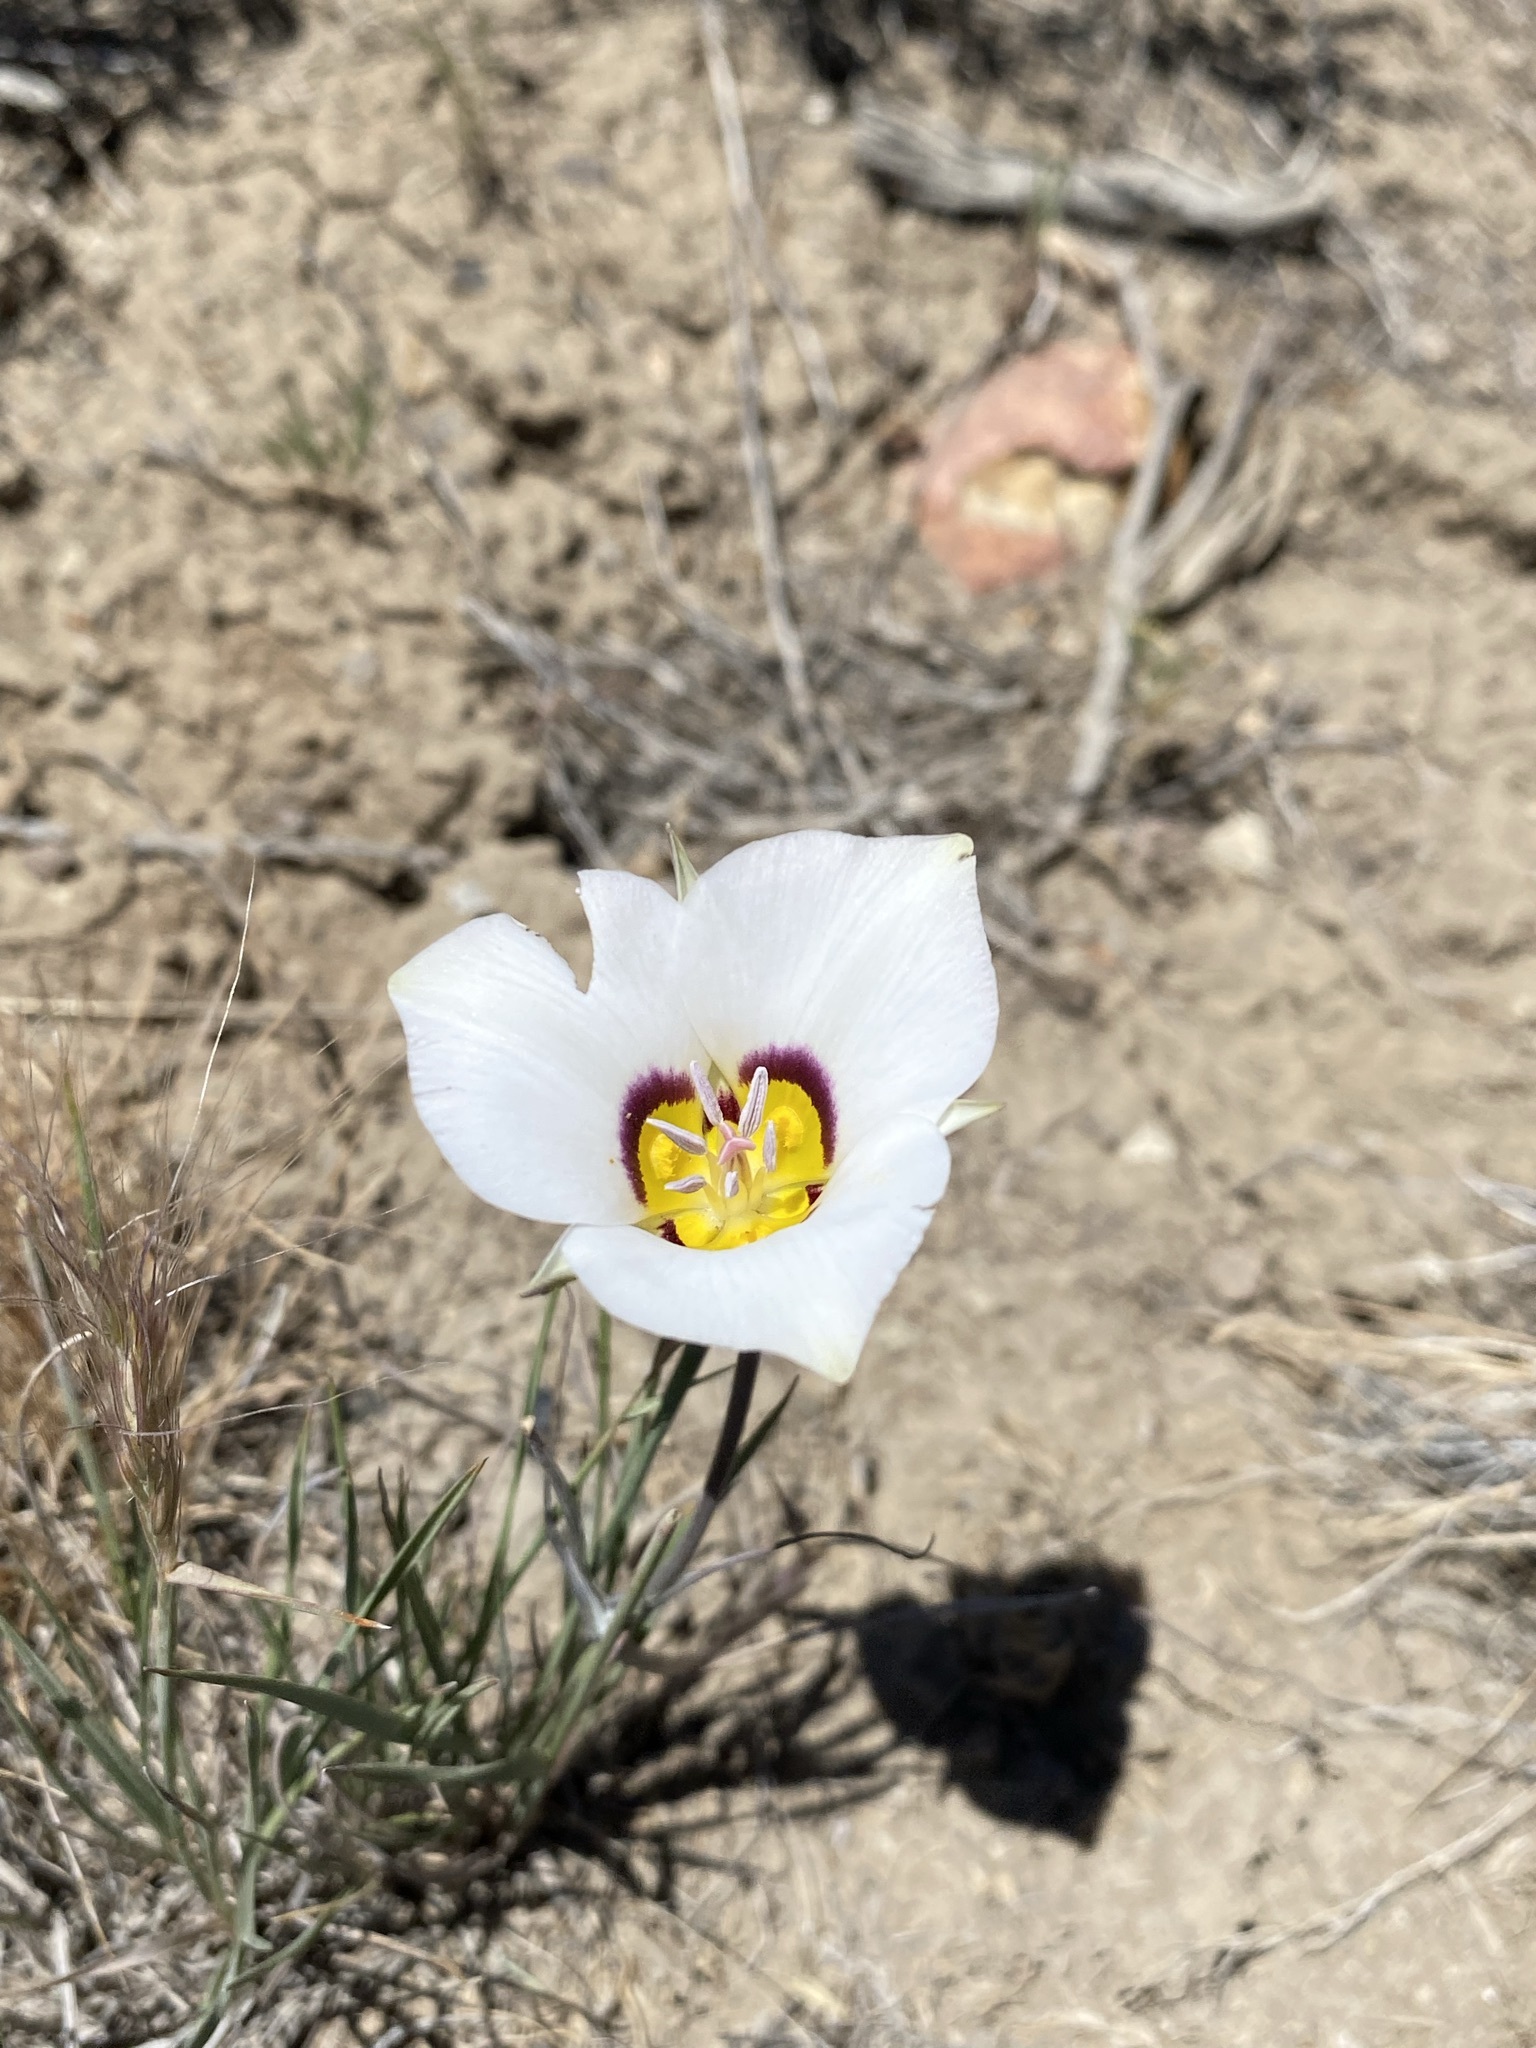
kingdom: Plantae
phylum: Tracheophyta
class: Liliopsida
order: Liliales
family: Liliaceae
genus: Calochortus
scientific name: Calochortus bruneaunis
